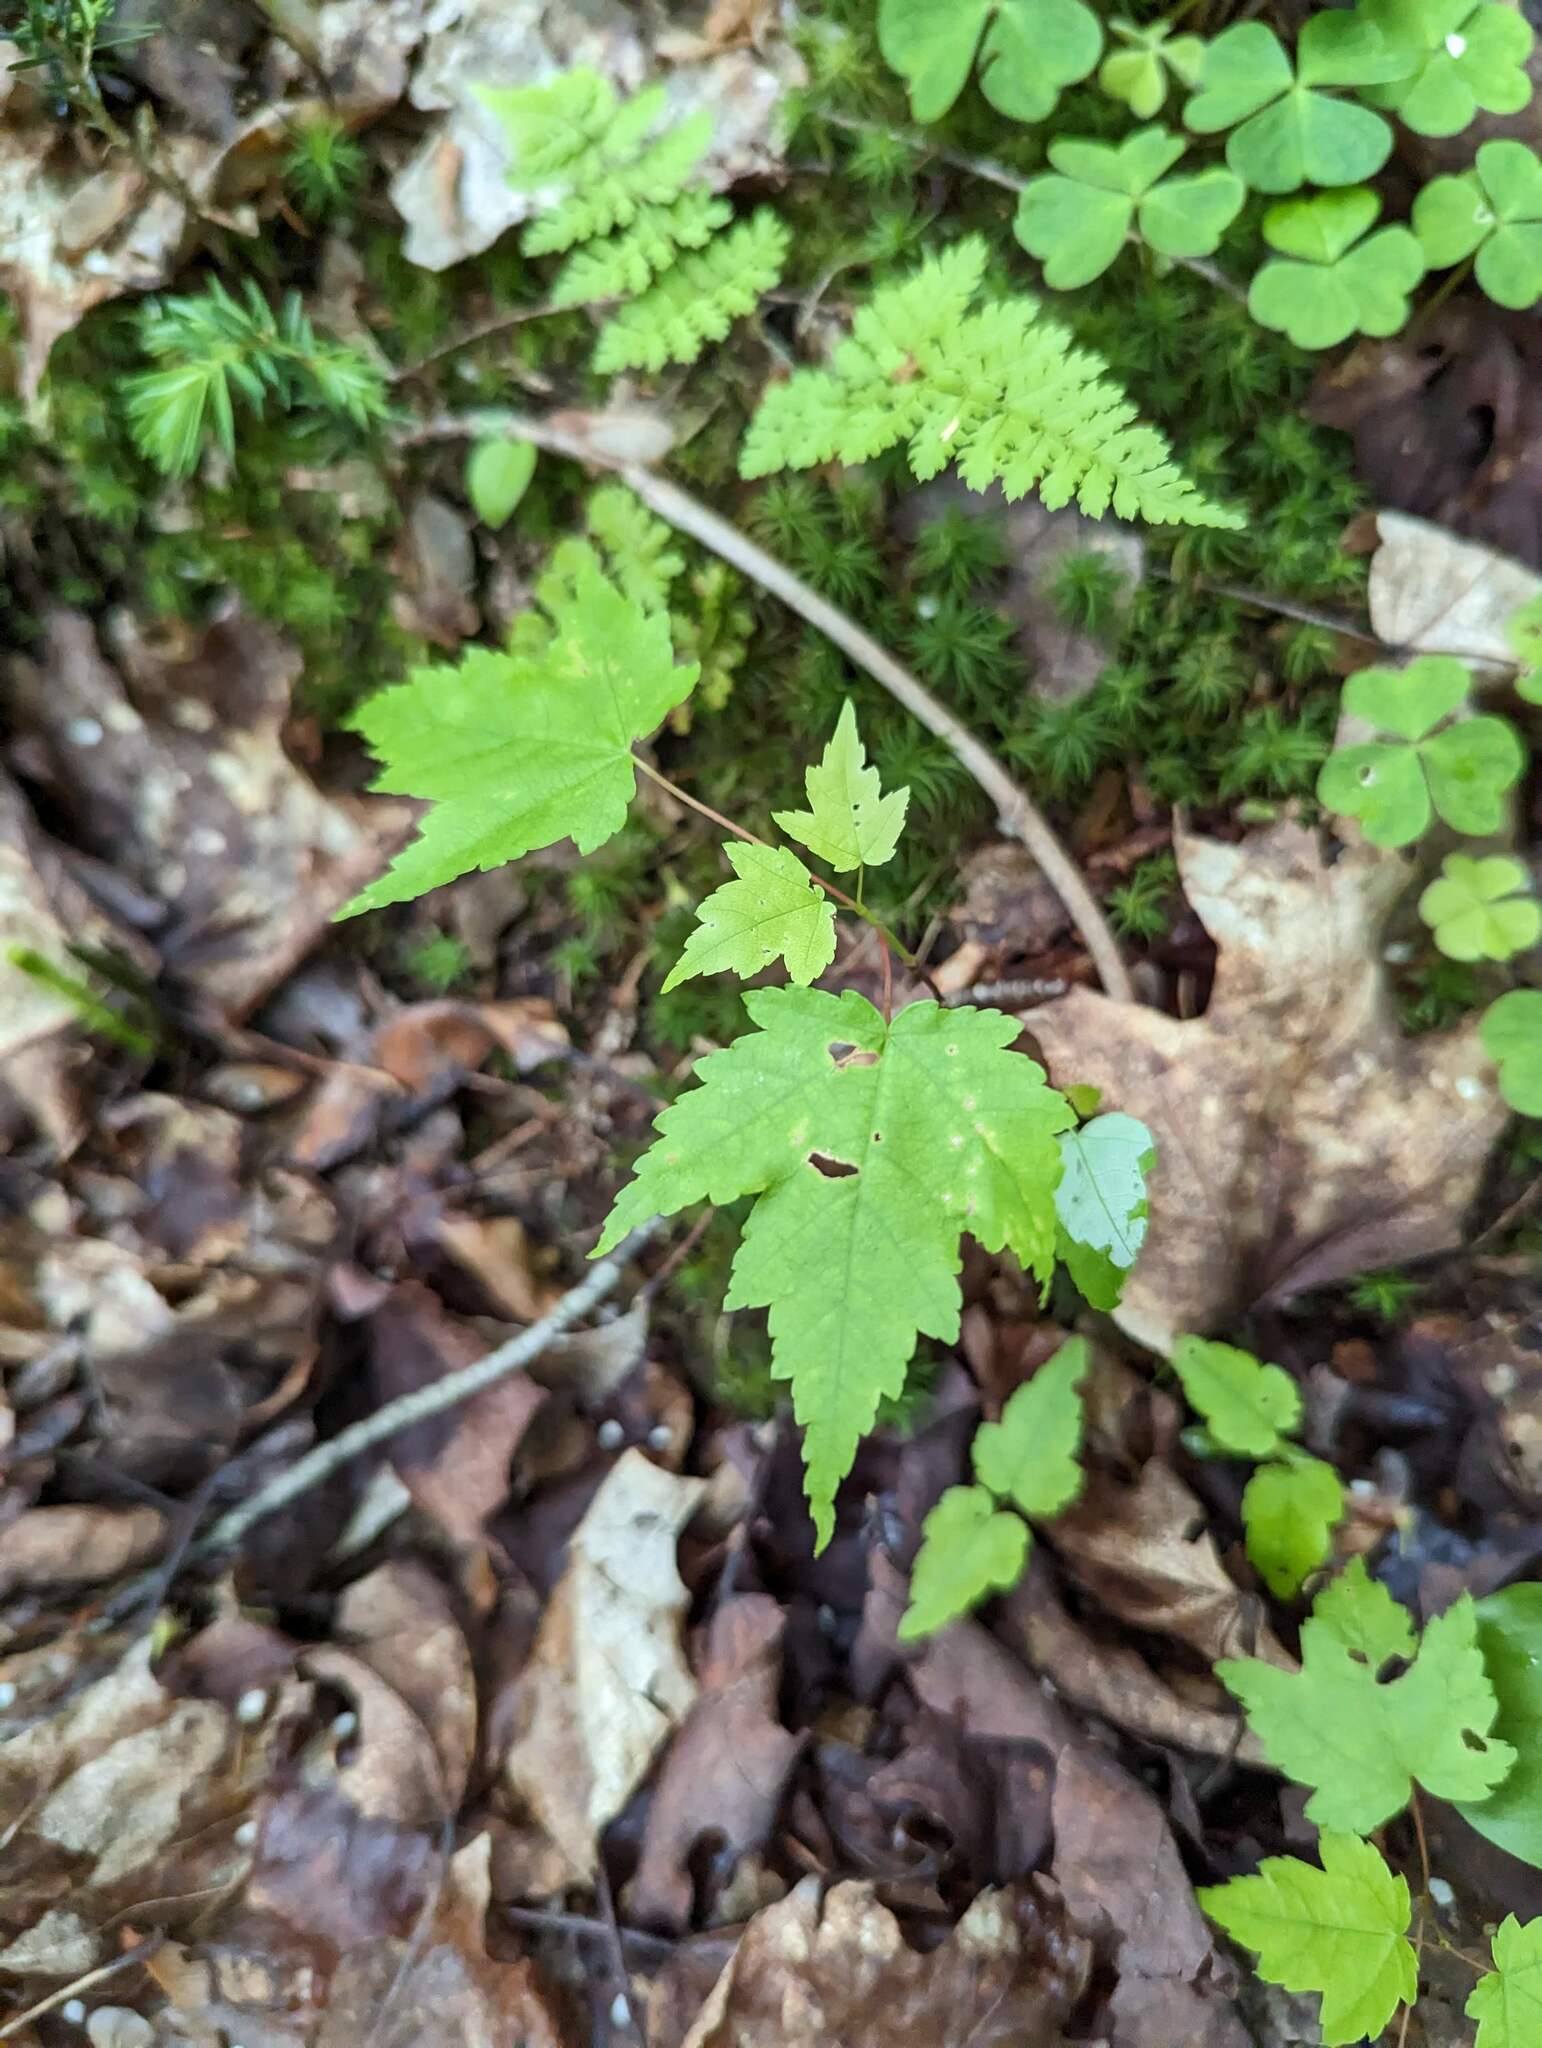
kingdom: Plantae
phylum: Tracheophyta
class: Magnoliopsida
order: Sapindales
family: Sapindaceae
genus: Acer
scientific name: Acer rubrum
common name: Red maple
